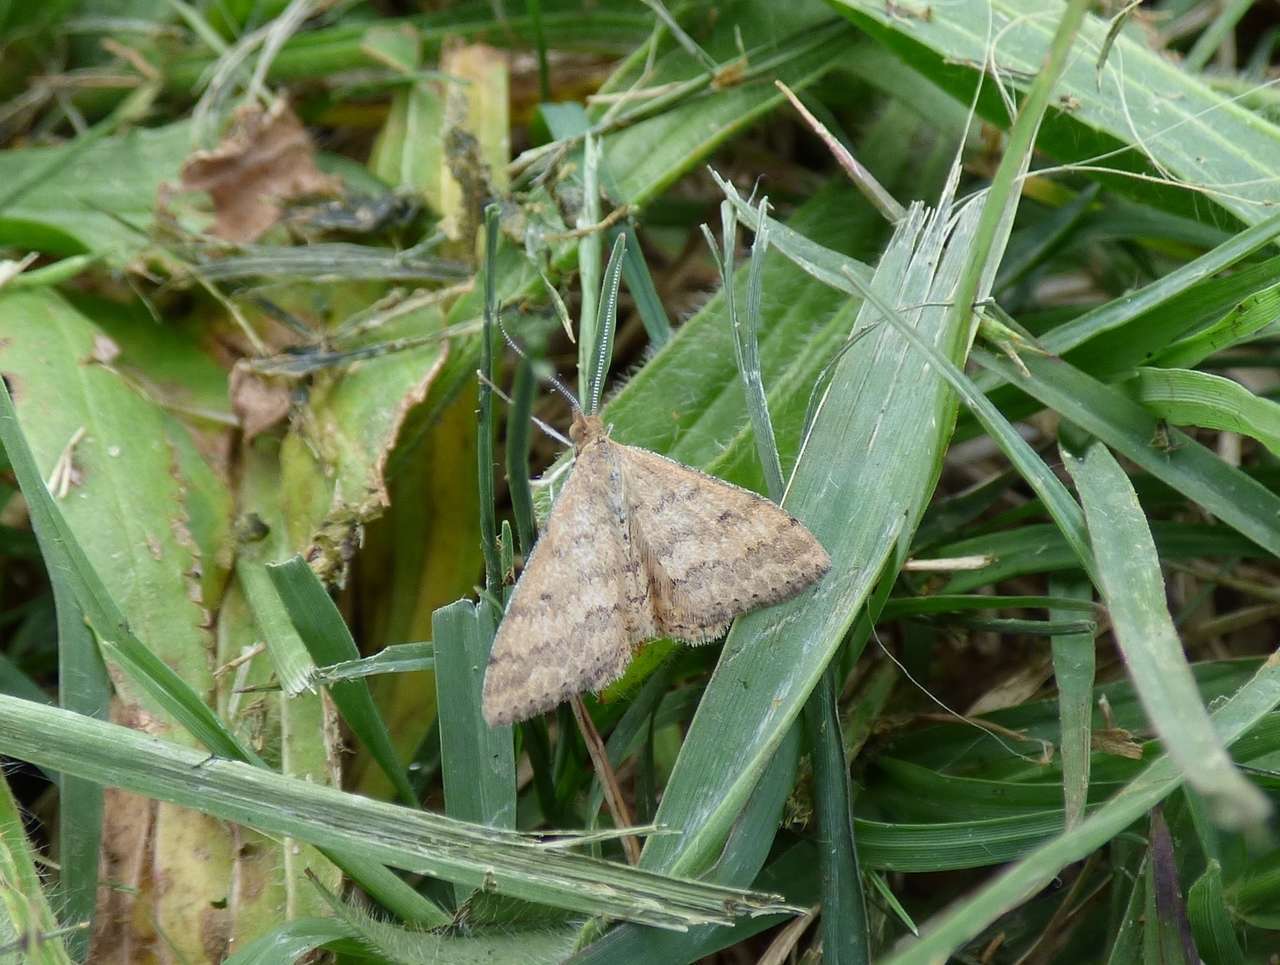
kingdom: Animalia
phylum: Arthropoda
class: Insecta
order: Lepidoptera
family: Geometridae
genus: Scopula
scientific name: Scopula rubraria
